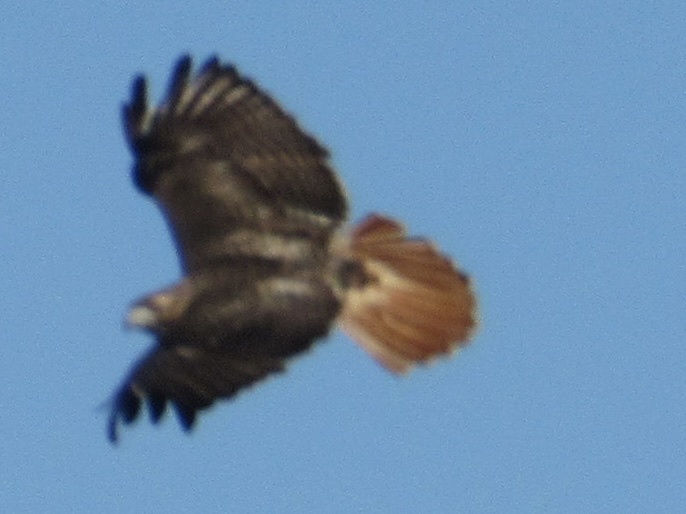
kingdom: Animalia
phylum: Chordata
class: Aves
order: Accipitriformes
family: Accipitridae
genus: Buteo
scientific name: Buteo jamaicensis
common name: Red-tailed hawk
